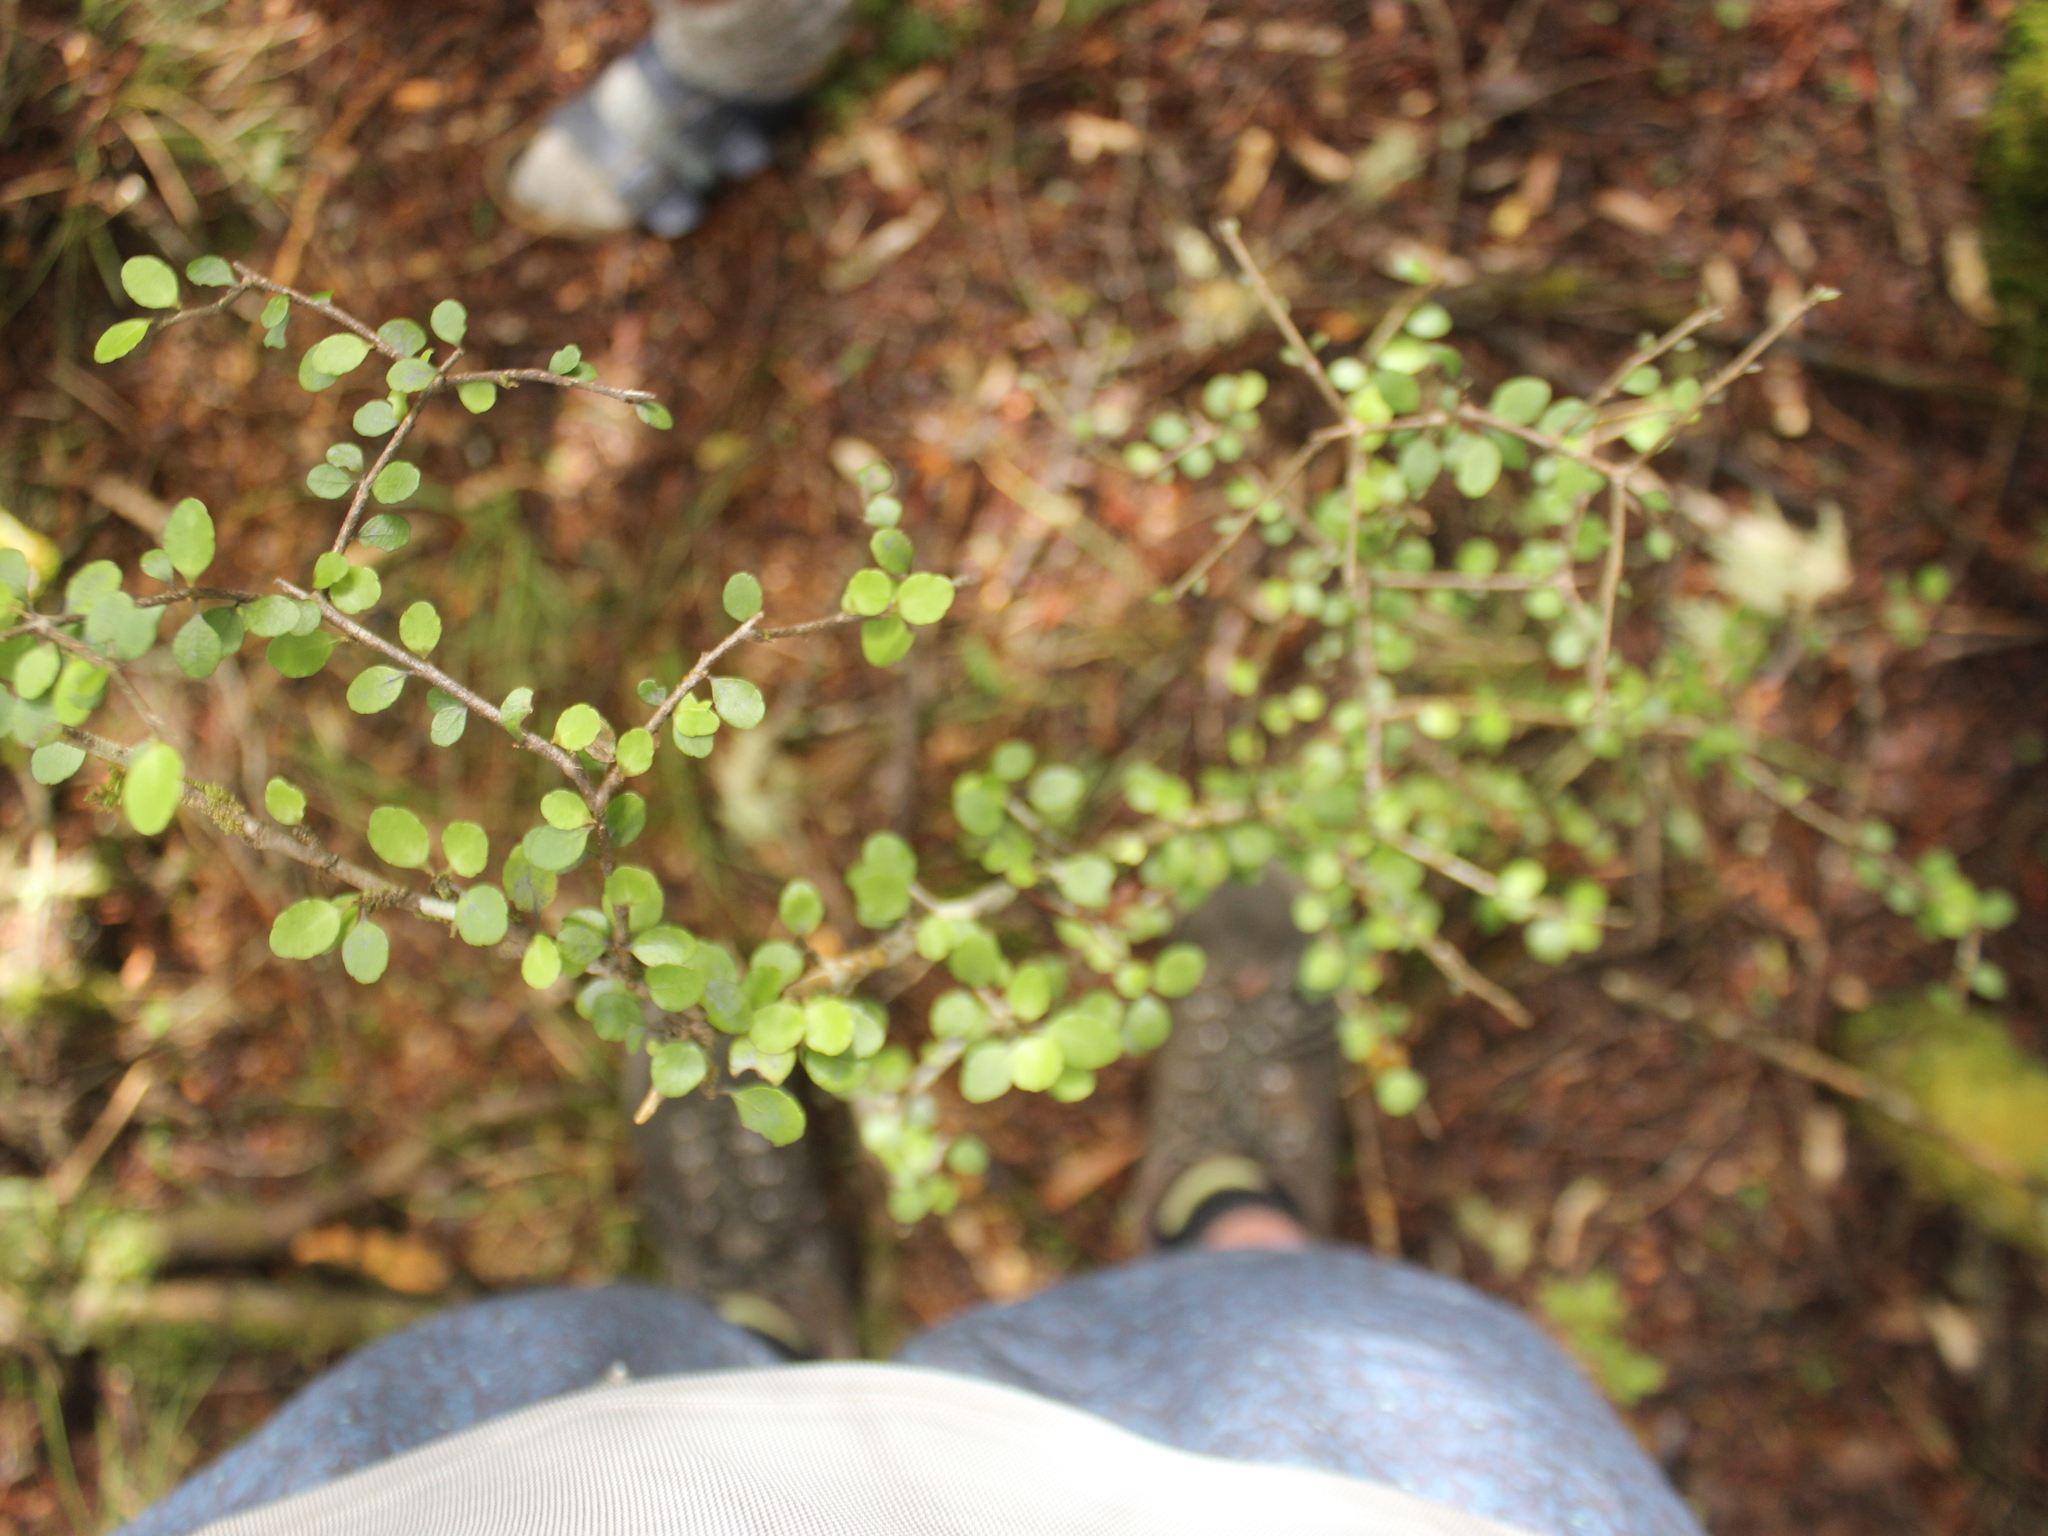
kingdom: Plantae
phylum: Tracheophyta
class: Magnoliopsida
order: Apiales
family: Araliaceae
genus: Raukaua
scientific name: Raukaua anomalus
